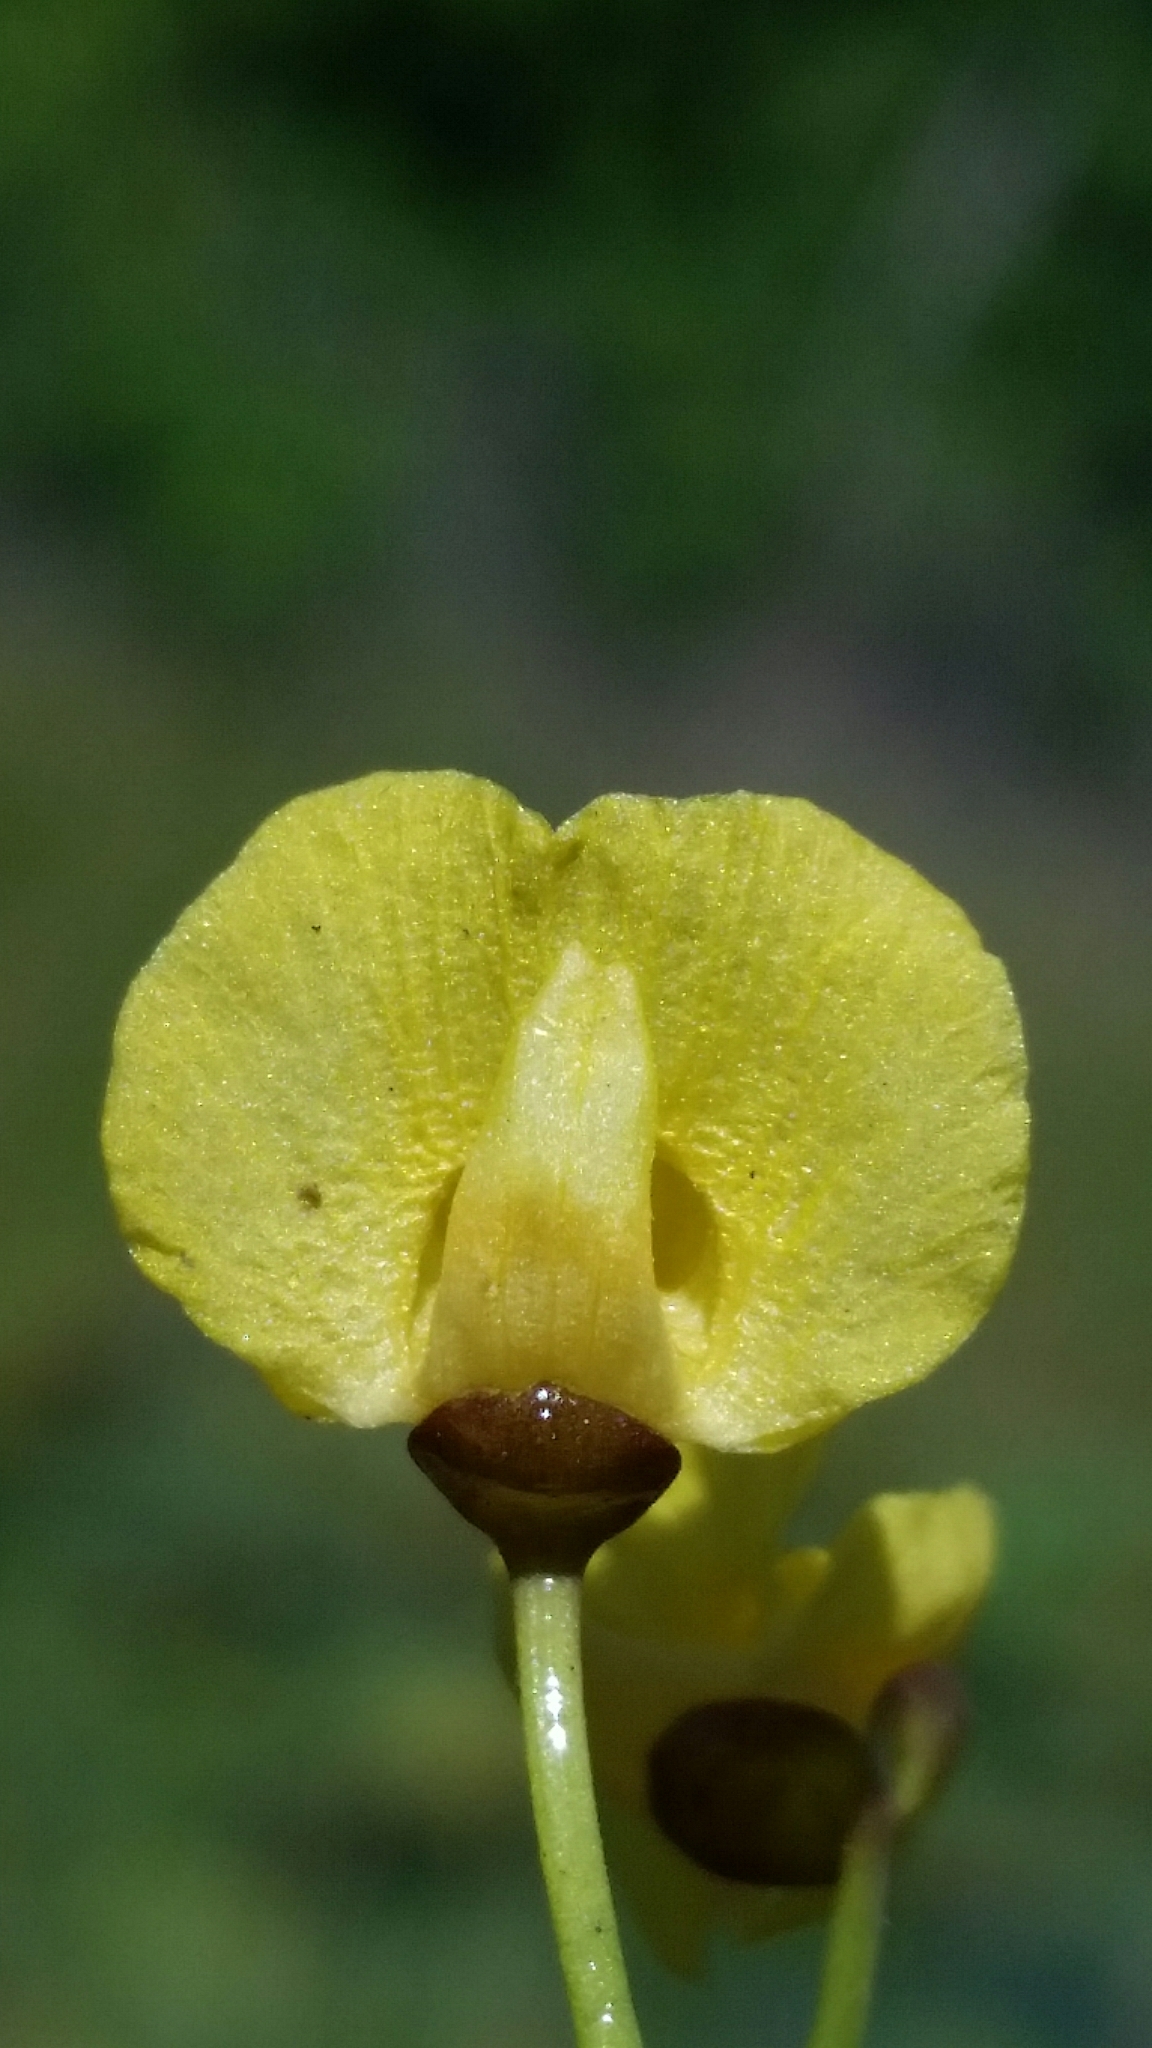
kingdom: Plantae
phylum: Tracheophyta
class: Magnoliopsida
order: Lamiales
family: Lentibulariaceae
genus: Utricularia
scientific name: Utricularia foliosa
